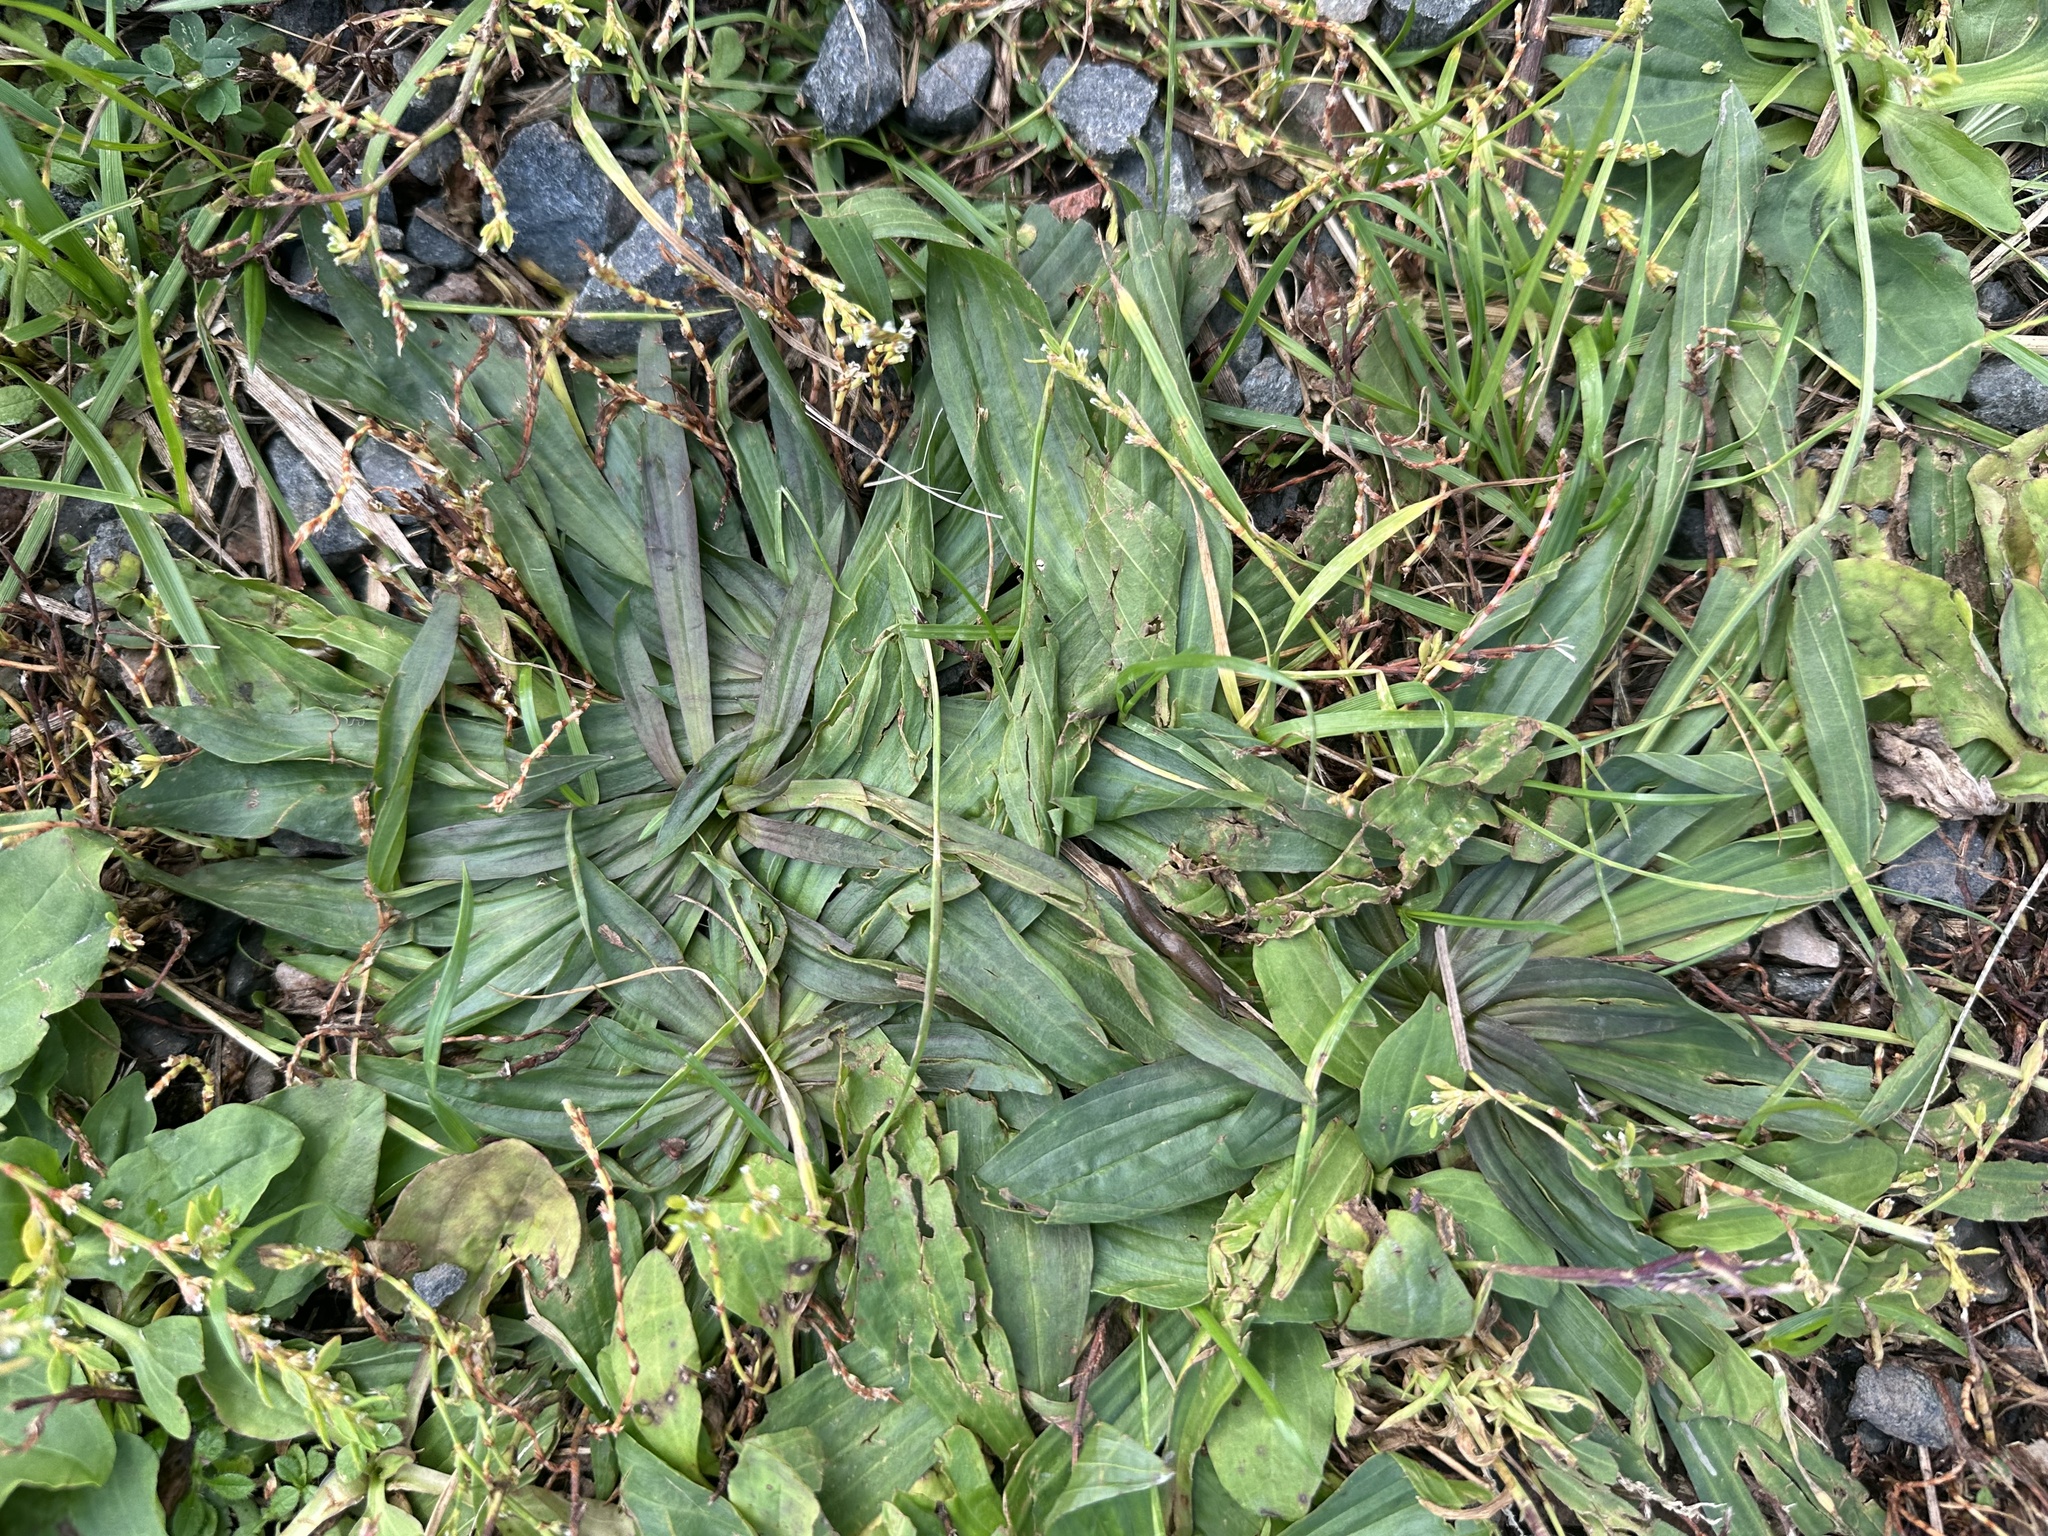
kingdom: Plantae
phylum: Tracheophyta
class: Magnoliopsida
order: Lamiales
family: Plantaginaceae
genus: Plantago
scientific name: Plantago lanceolata
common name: Ribwort plantain
